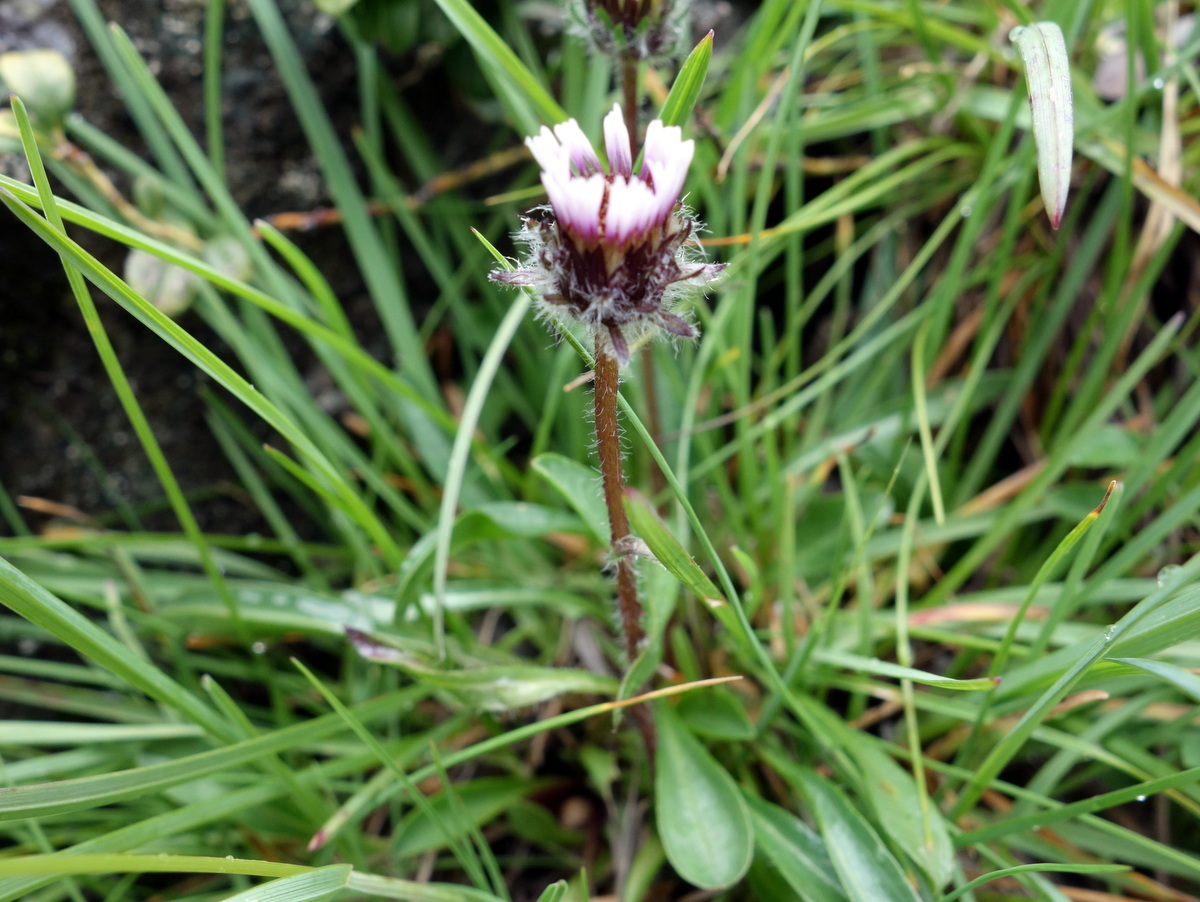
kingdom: Plantae
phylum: Tracheophyta
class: Magnoliopsida
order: Asterales
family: Asteraceae
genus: Erigeron
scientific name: Erigeron uniflorus
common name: Northern daisy
